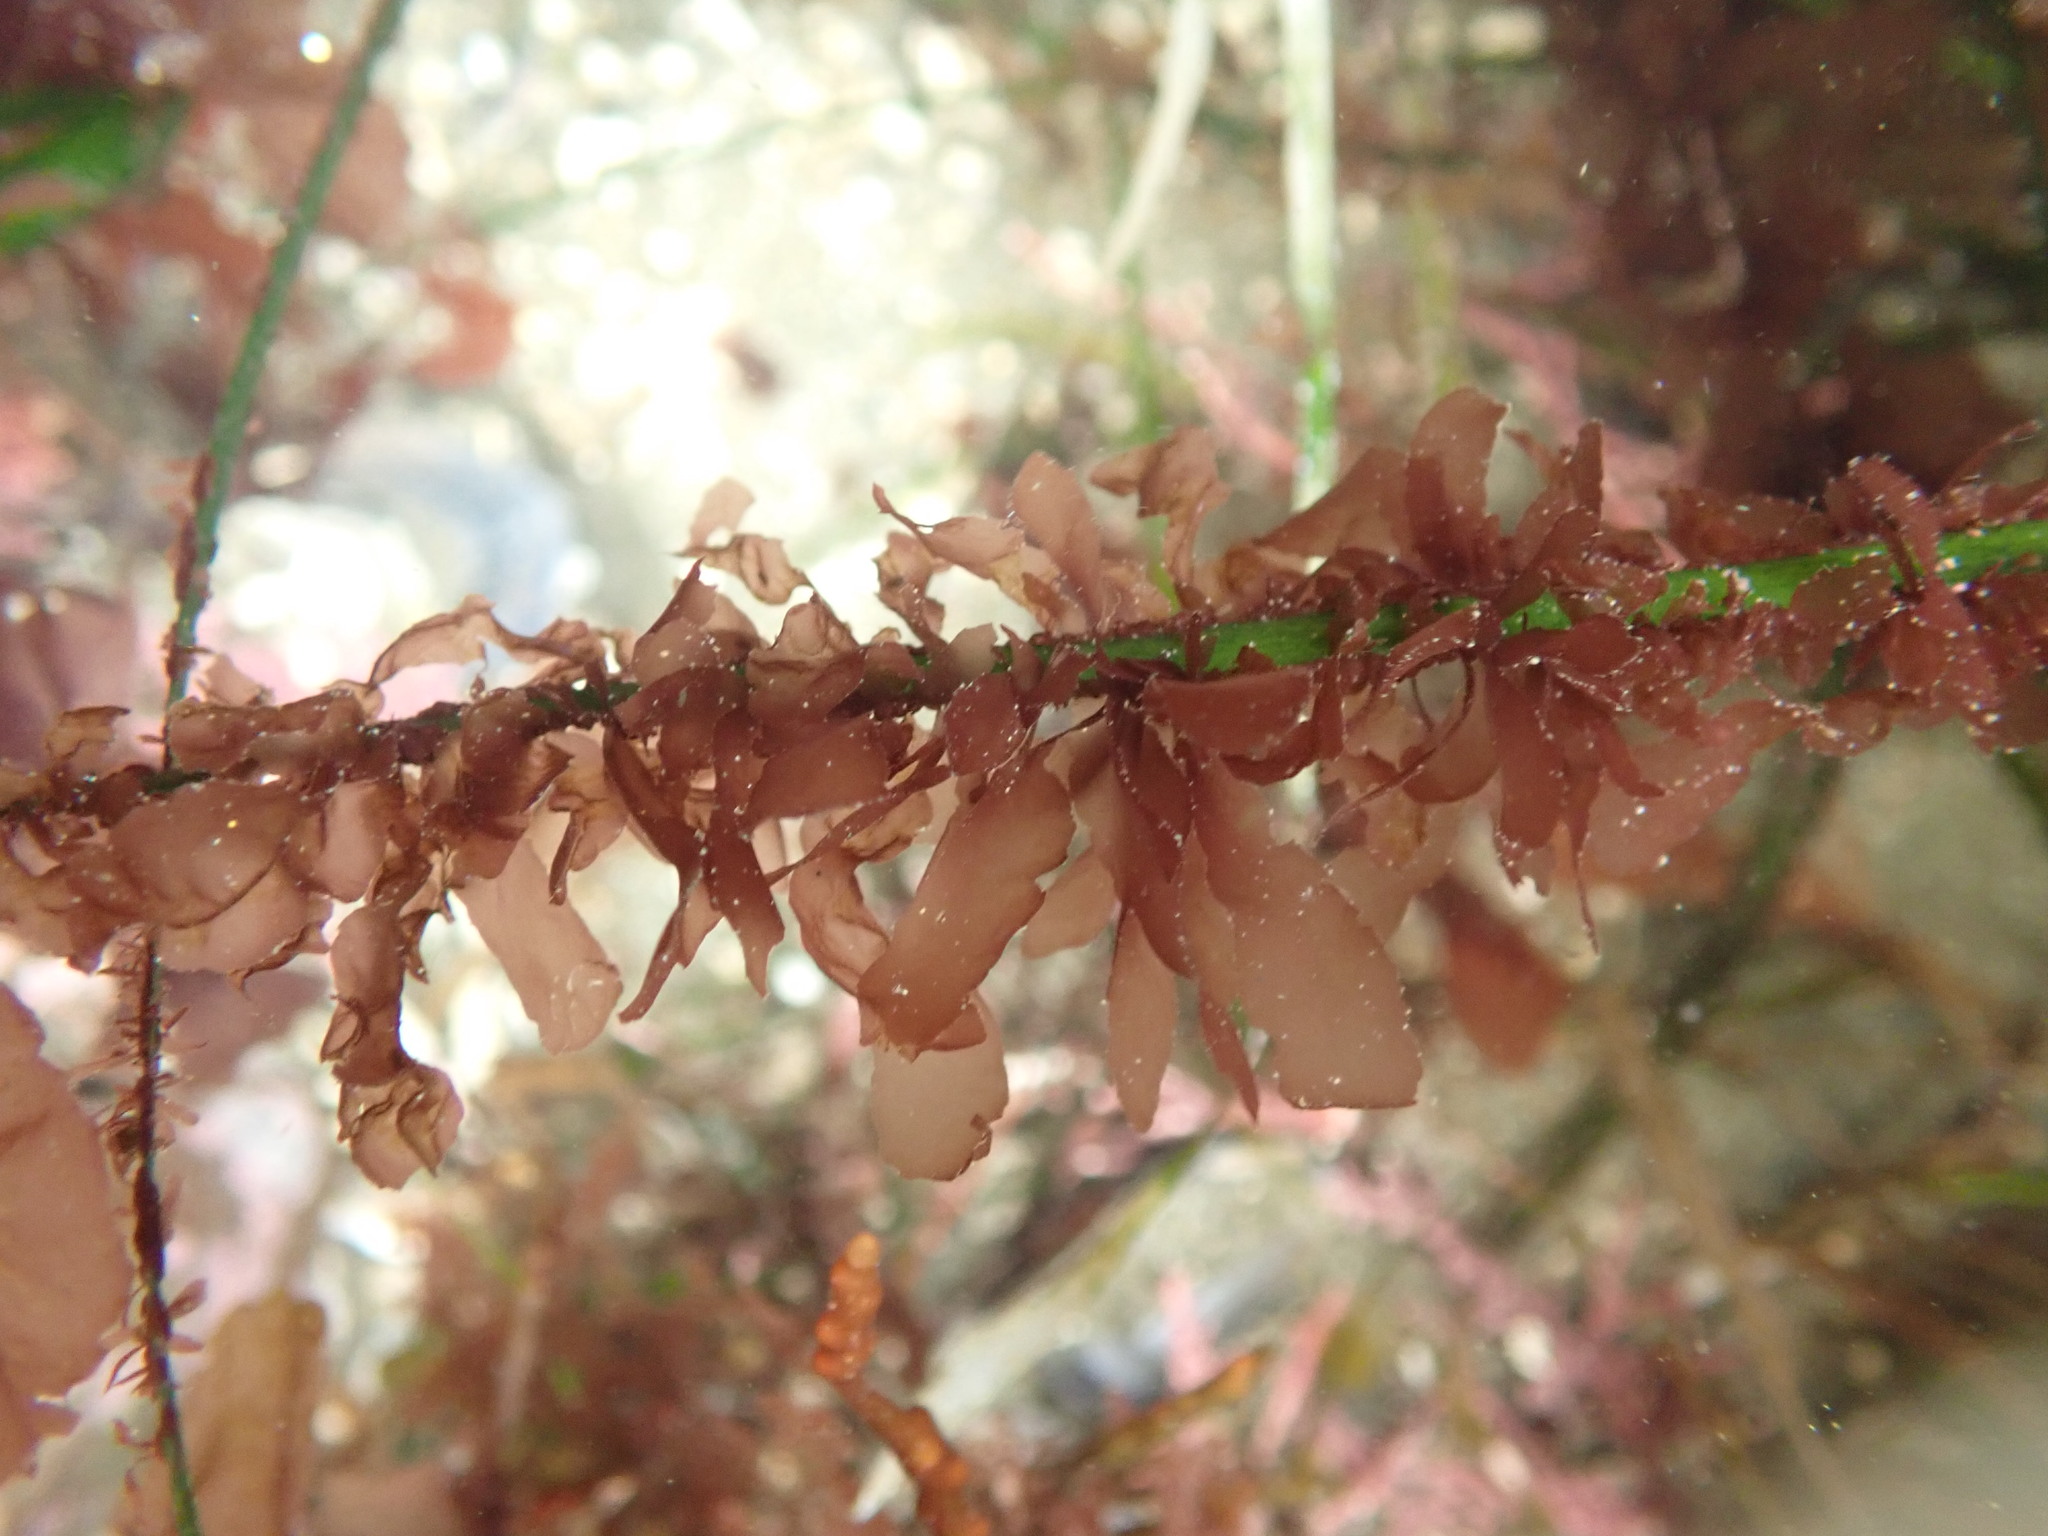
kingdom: Plantae
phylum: Rhodophyta
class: Compsopogonophyceae
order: Erythropeltidales
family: Erythrotrichiaceae
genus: Smithora
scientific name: Smithora naiadum
